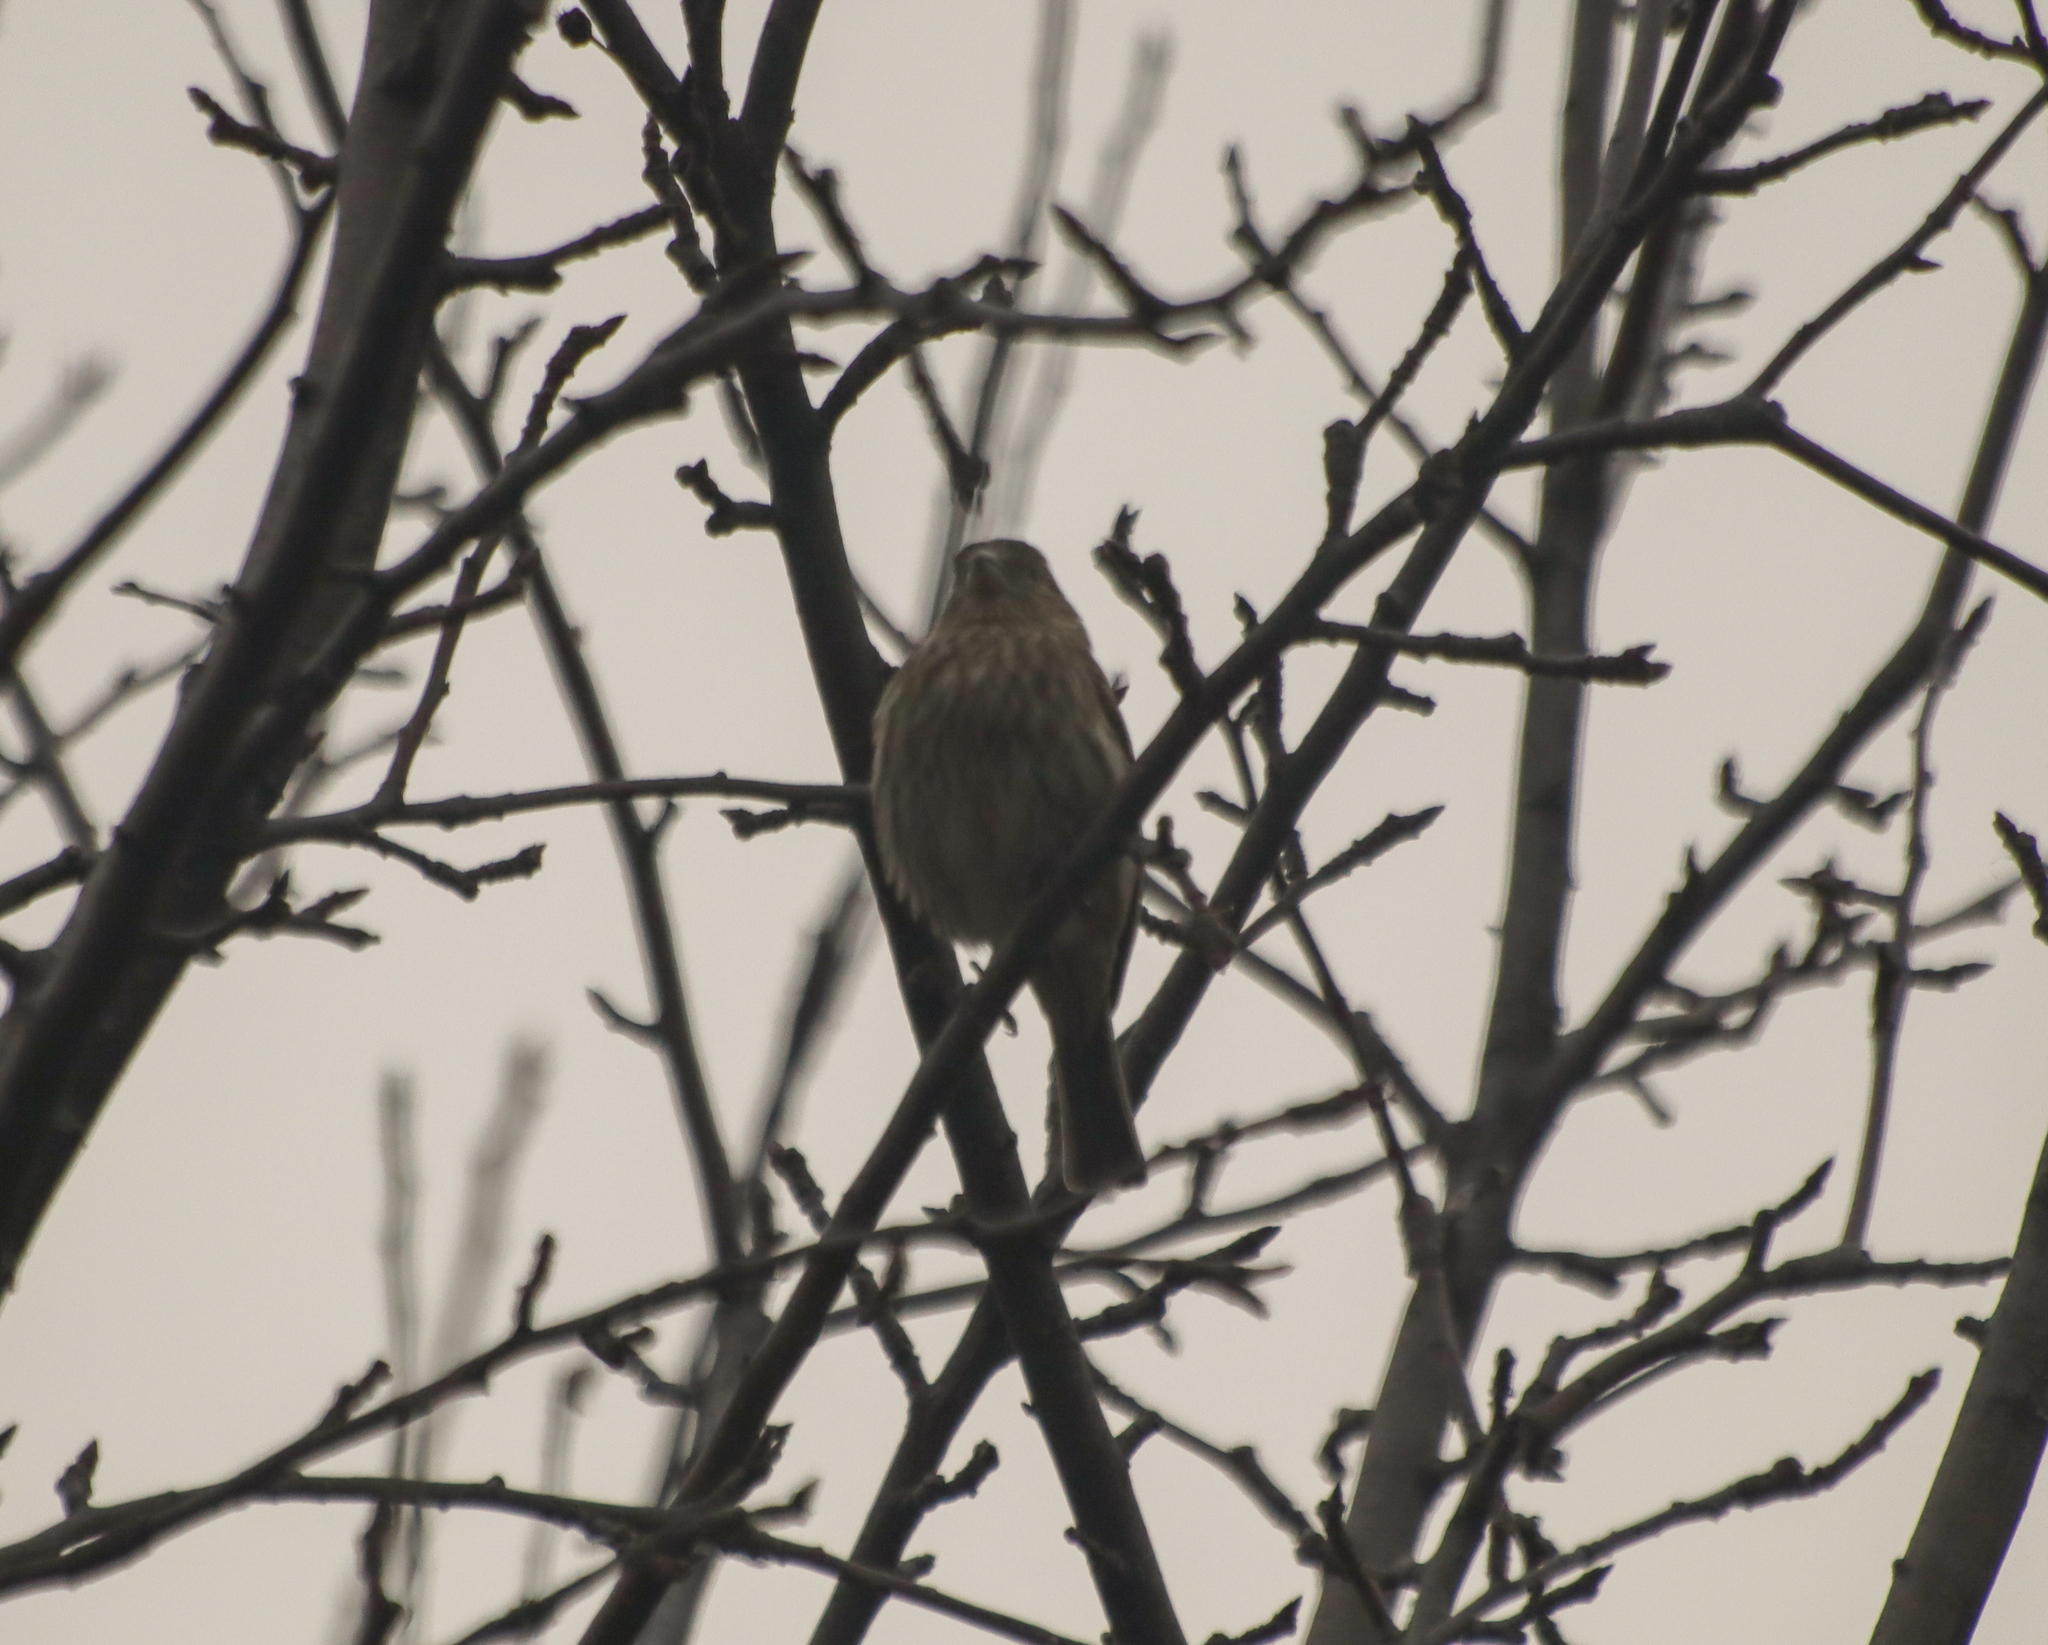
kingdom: Animalia
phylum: Chordata
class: Aves
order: Passeriformes
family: Fringillidae
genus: Haemorhous
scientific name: Haemorhous mexicanus
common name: House finch
